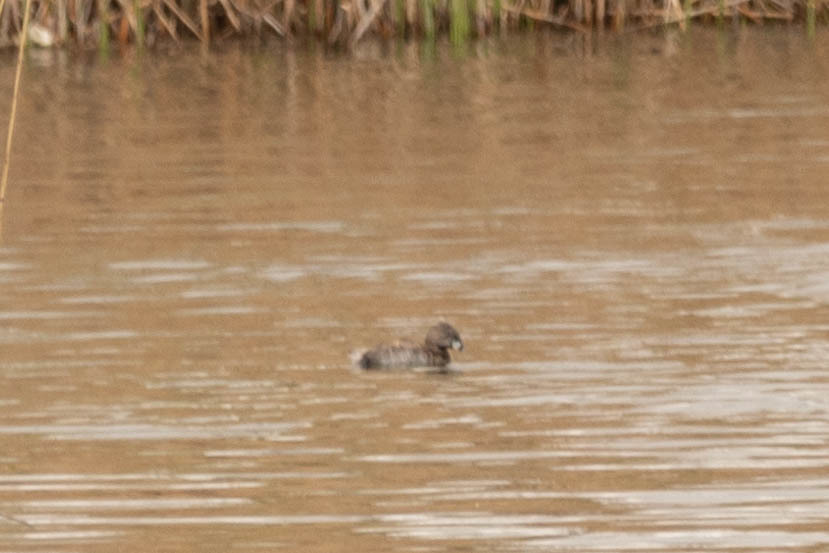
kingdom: Animalia
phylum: Chordata
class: Aves
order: Podicipediformes
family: Podicipedidae
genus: Podilymbus
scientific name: Podilymbus podiceps
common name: Pied-billed grebe
